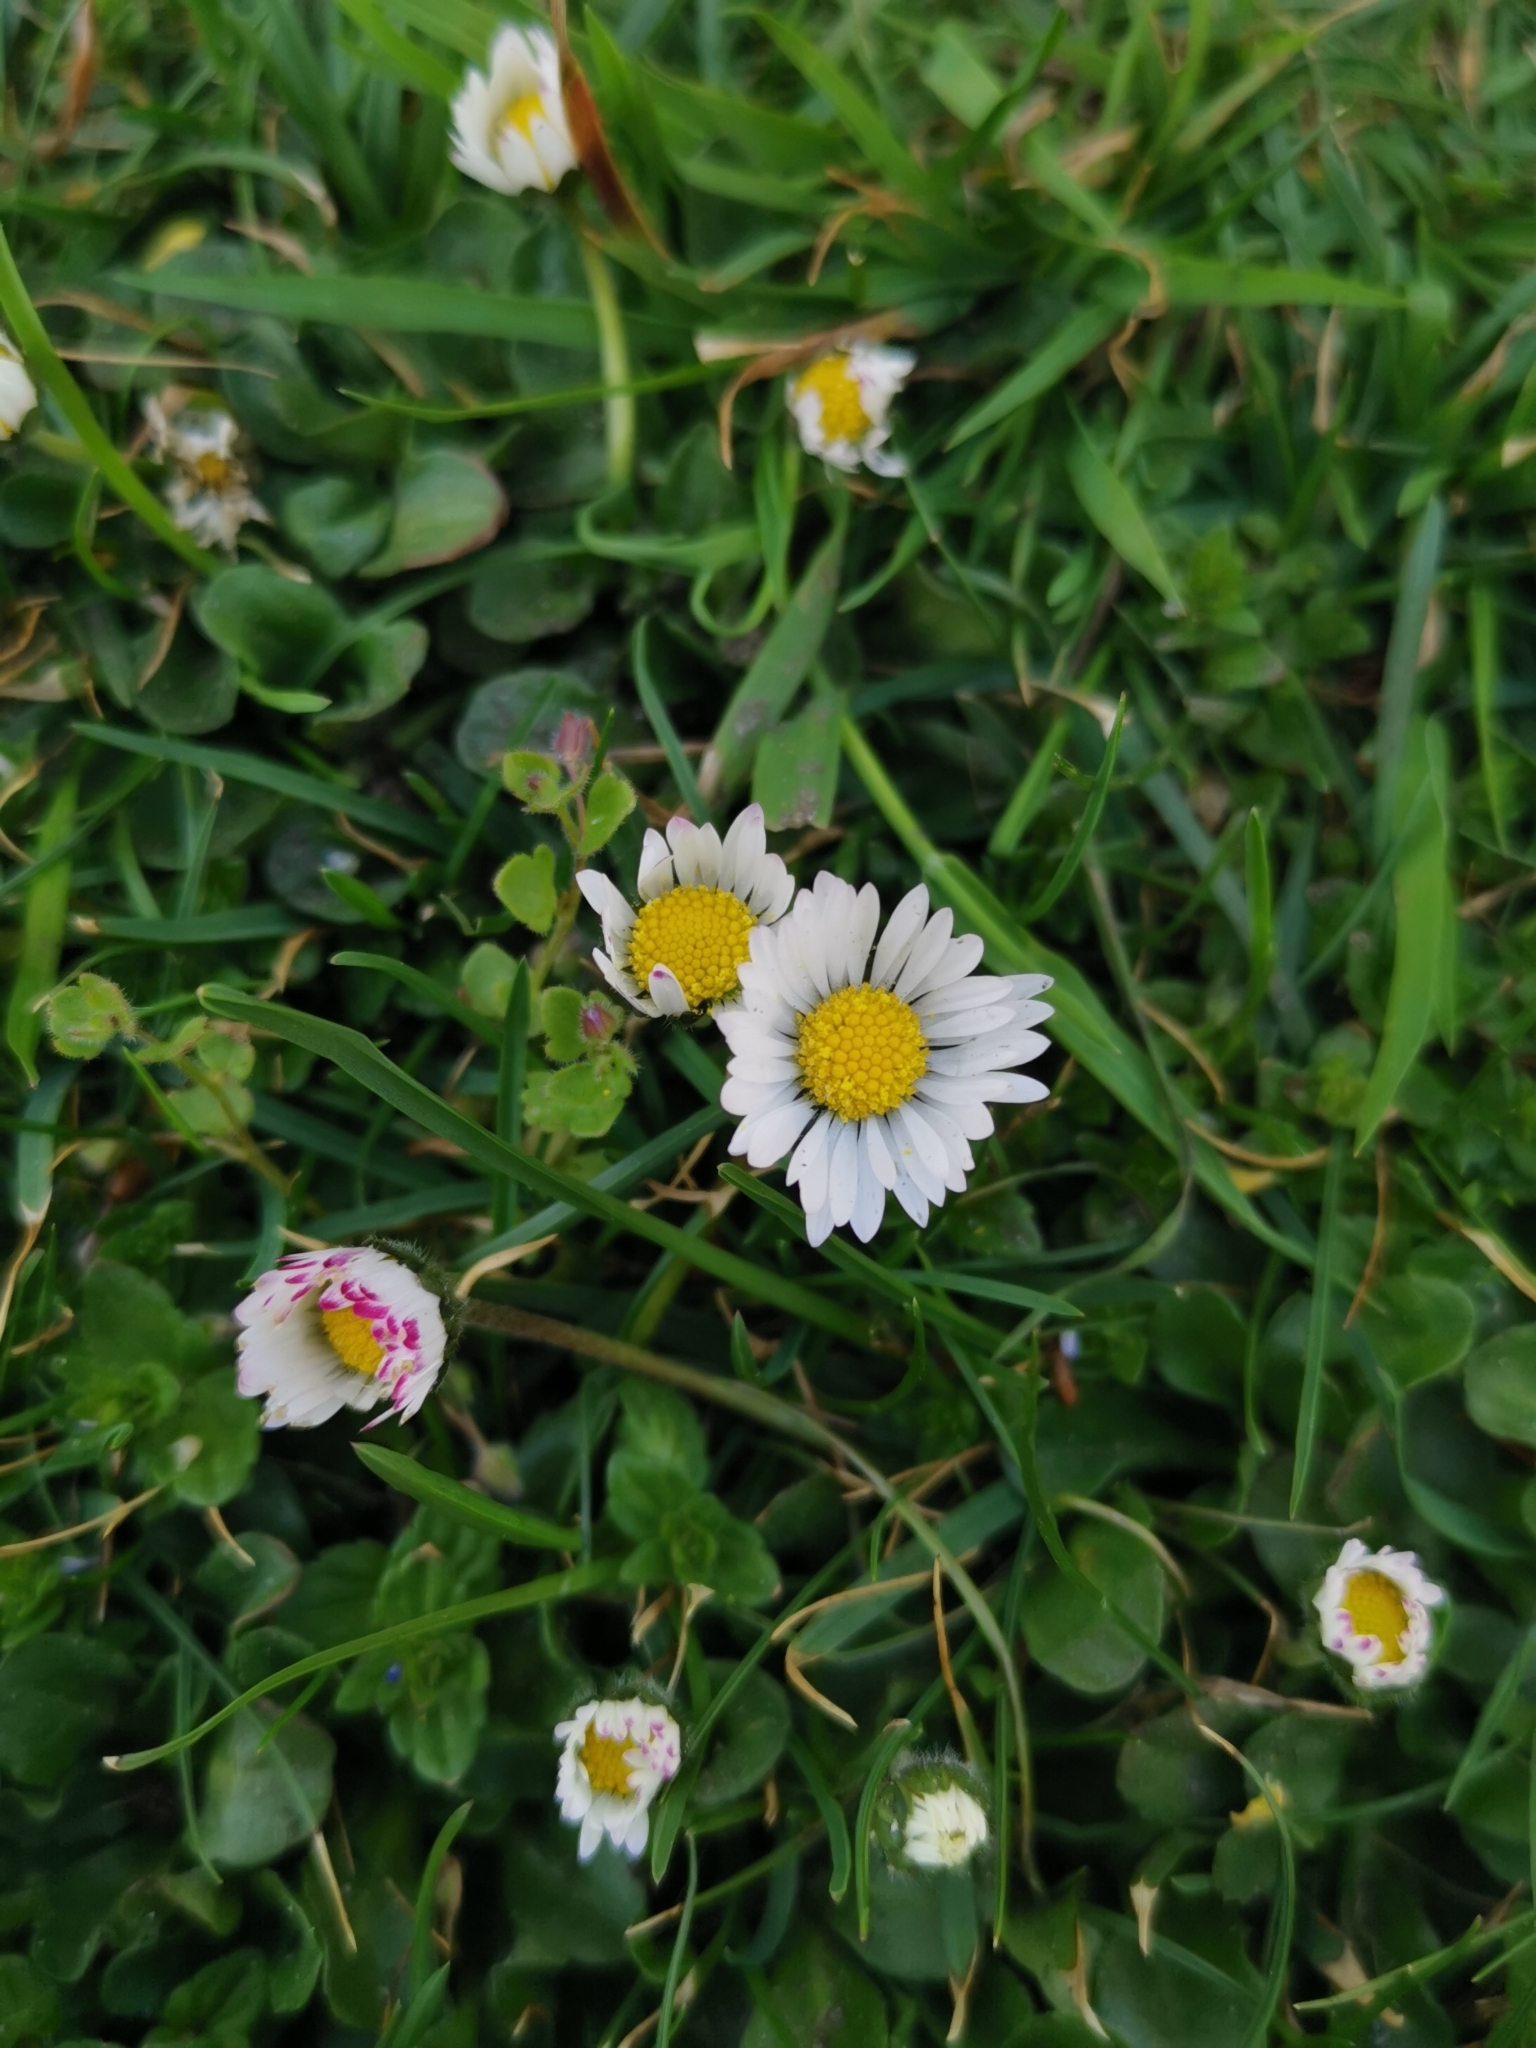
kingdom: Plantae
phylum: Tracheophyta
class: Magnoliopsida
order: Asterales
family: Asteraceae
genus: Bellis
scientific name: Bellis perennis
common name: Lawndaisy
